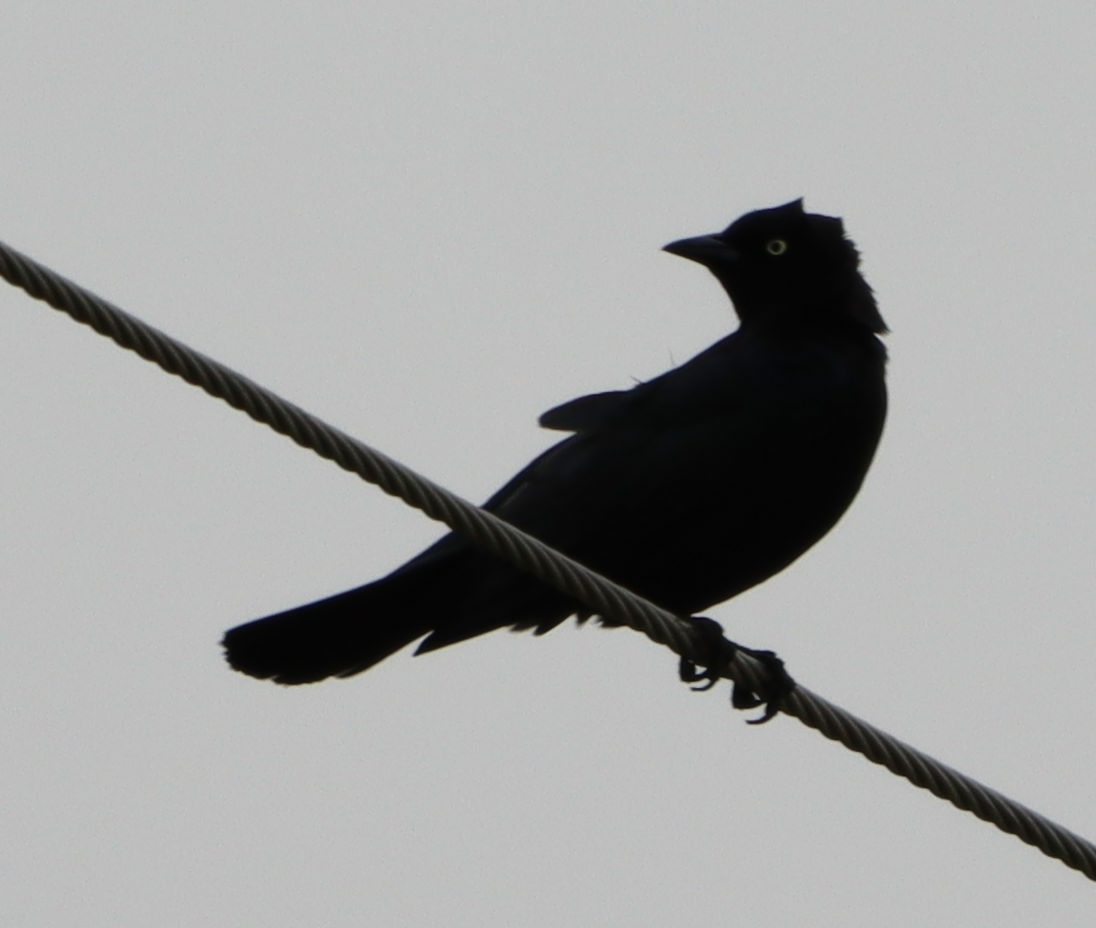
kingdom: Animalia
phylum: Chordata
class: Aves
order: Passeriformes
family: Icteridae
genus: Euphagus
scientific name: Euphagus cyanocephalus
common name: Brewer's blackbird
